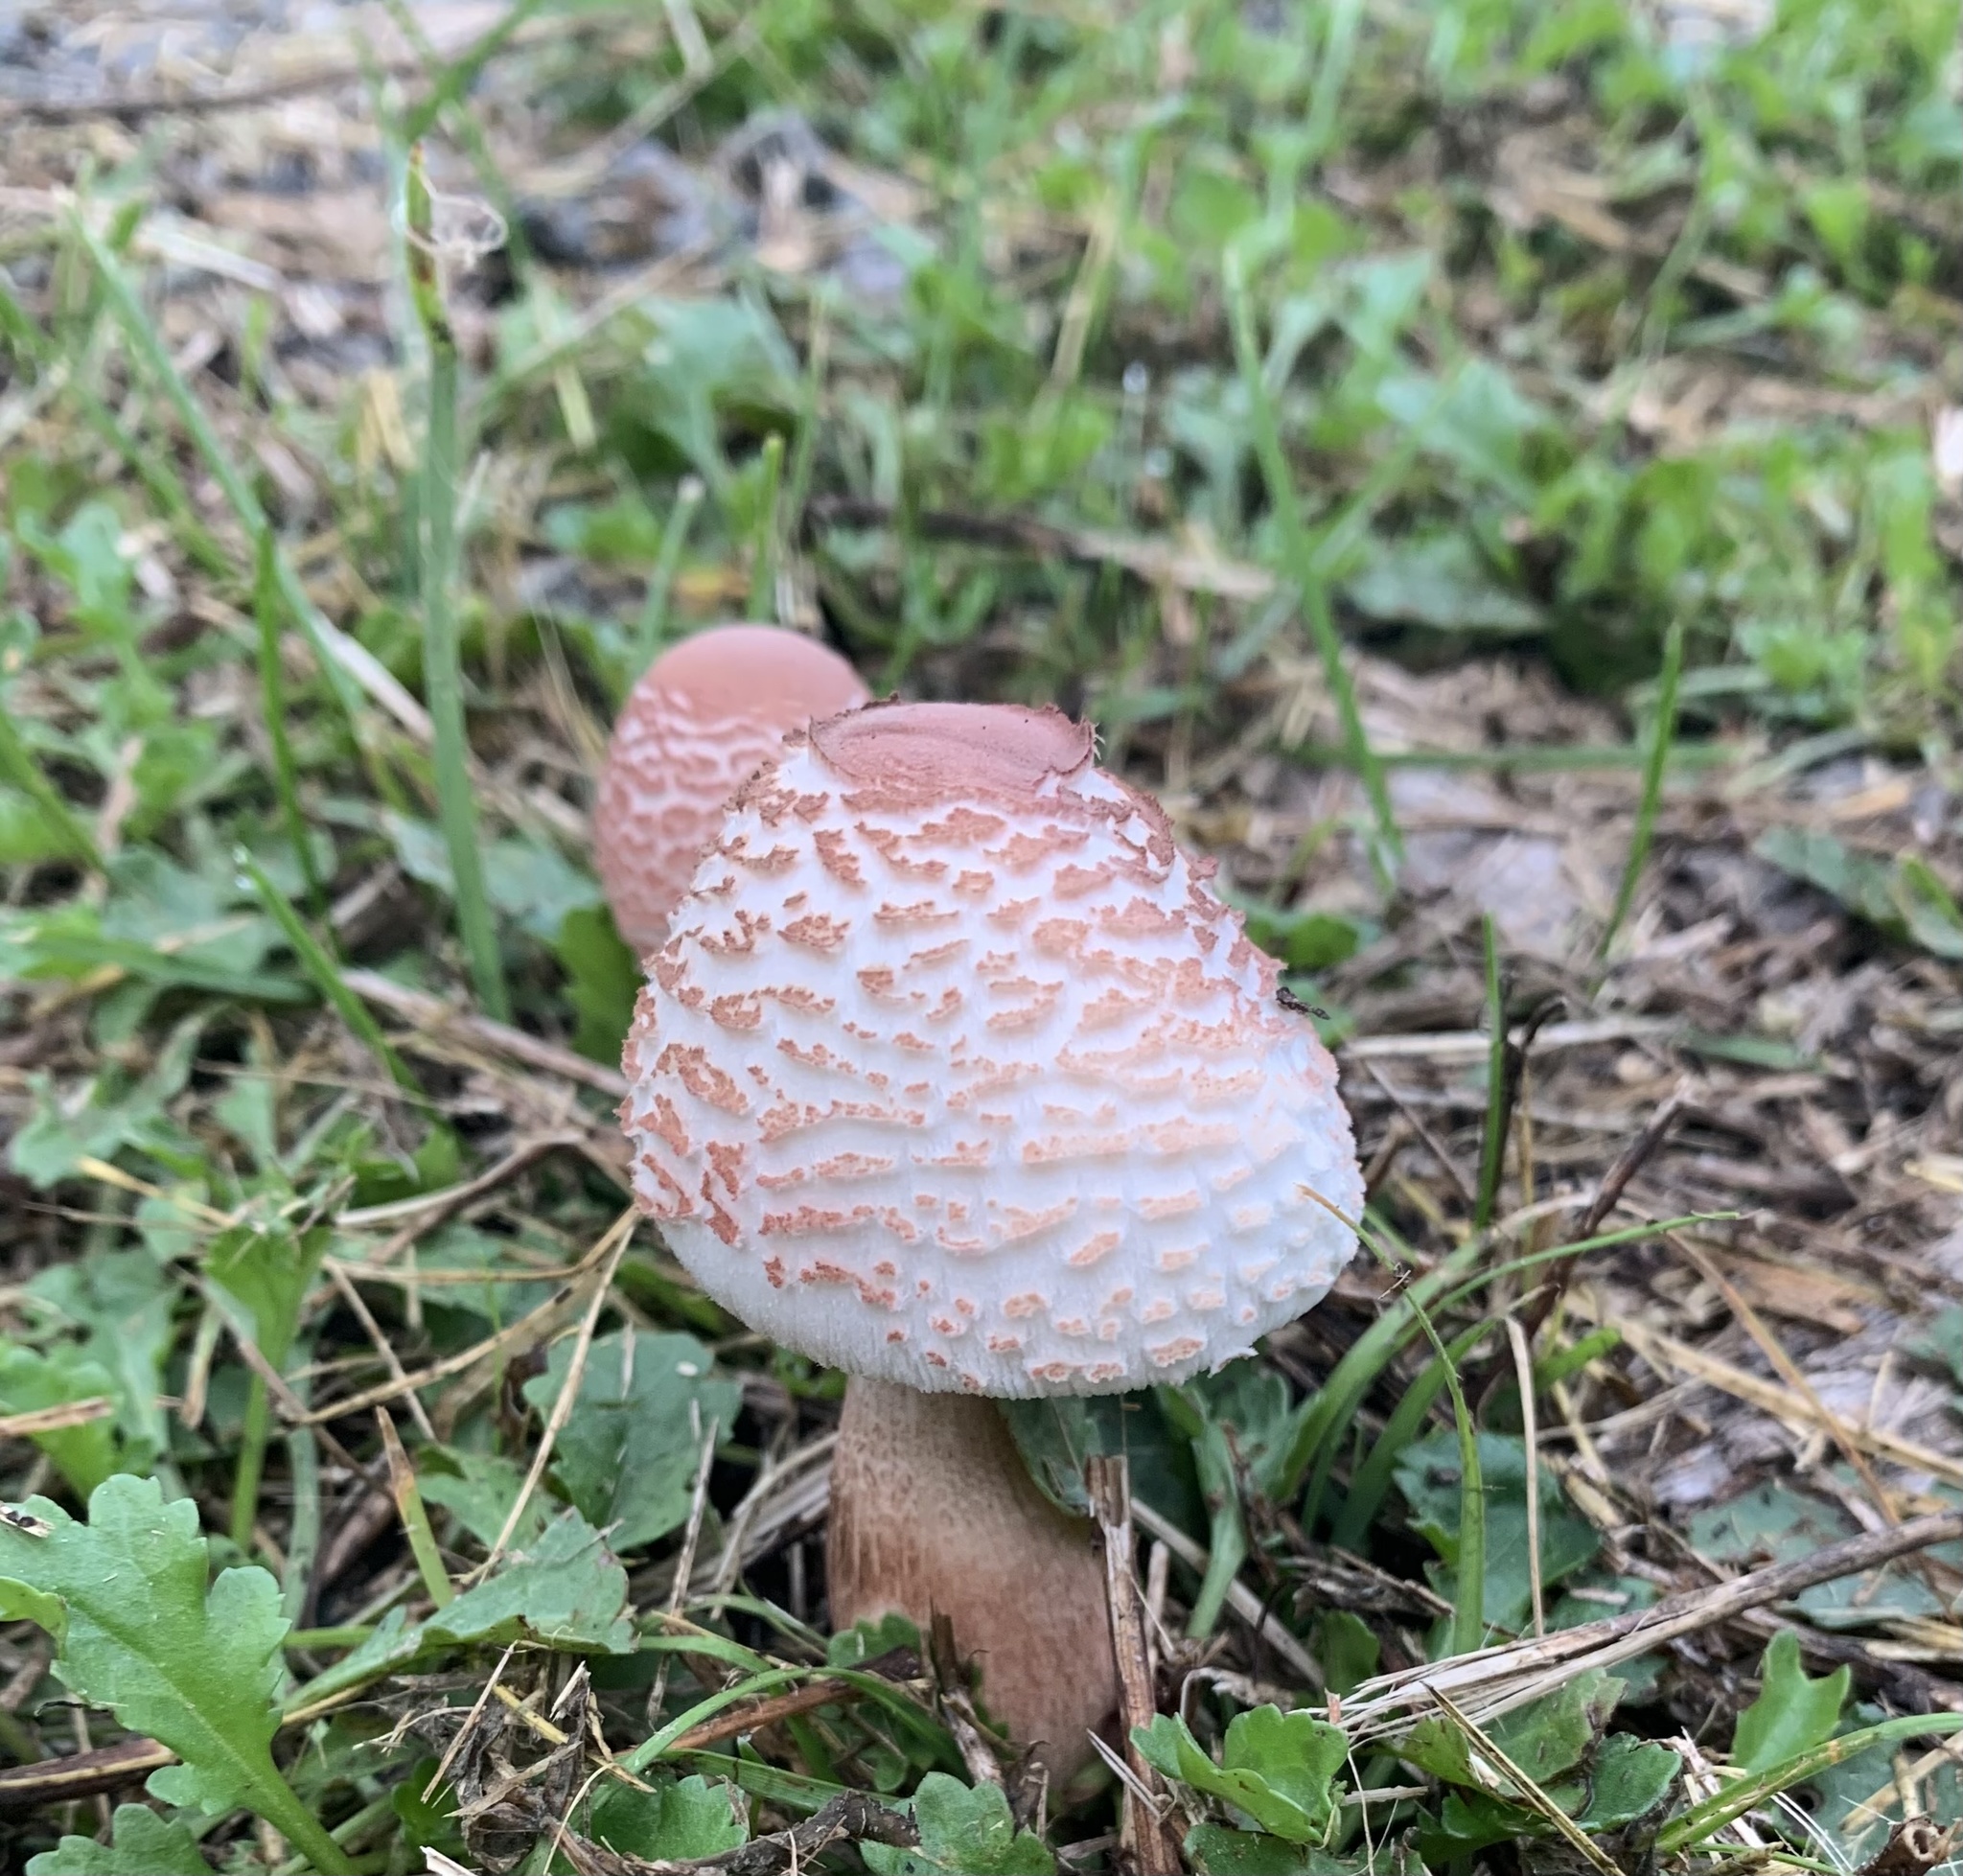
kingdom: Fungi
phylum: Basidiomycota
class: Agaricomycetes
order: Agaricales
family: Agaricaceae
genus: Leucoagaricus
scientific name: Leucoagaricus americanus
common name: Reddening lepiota
